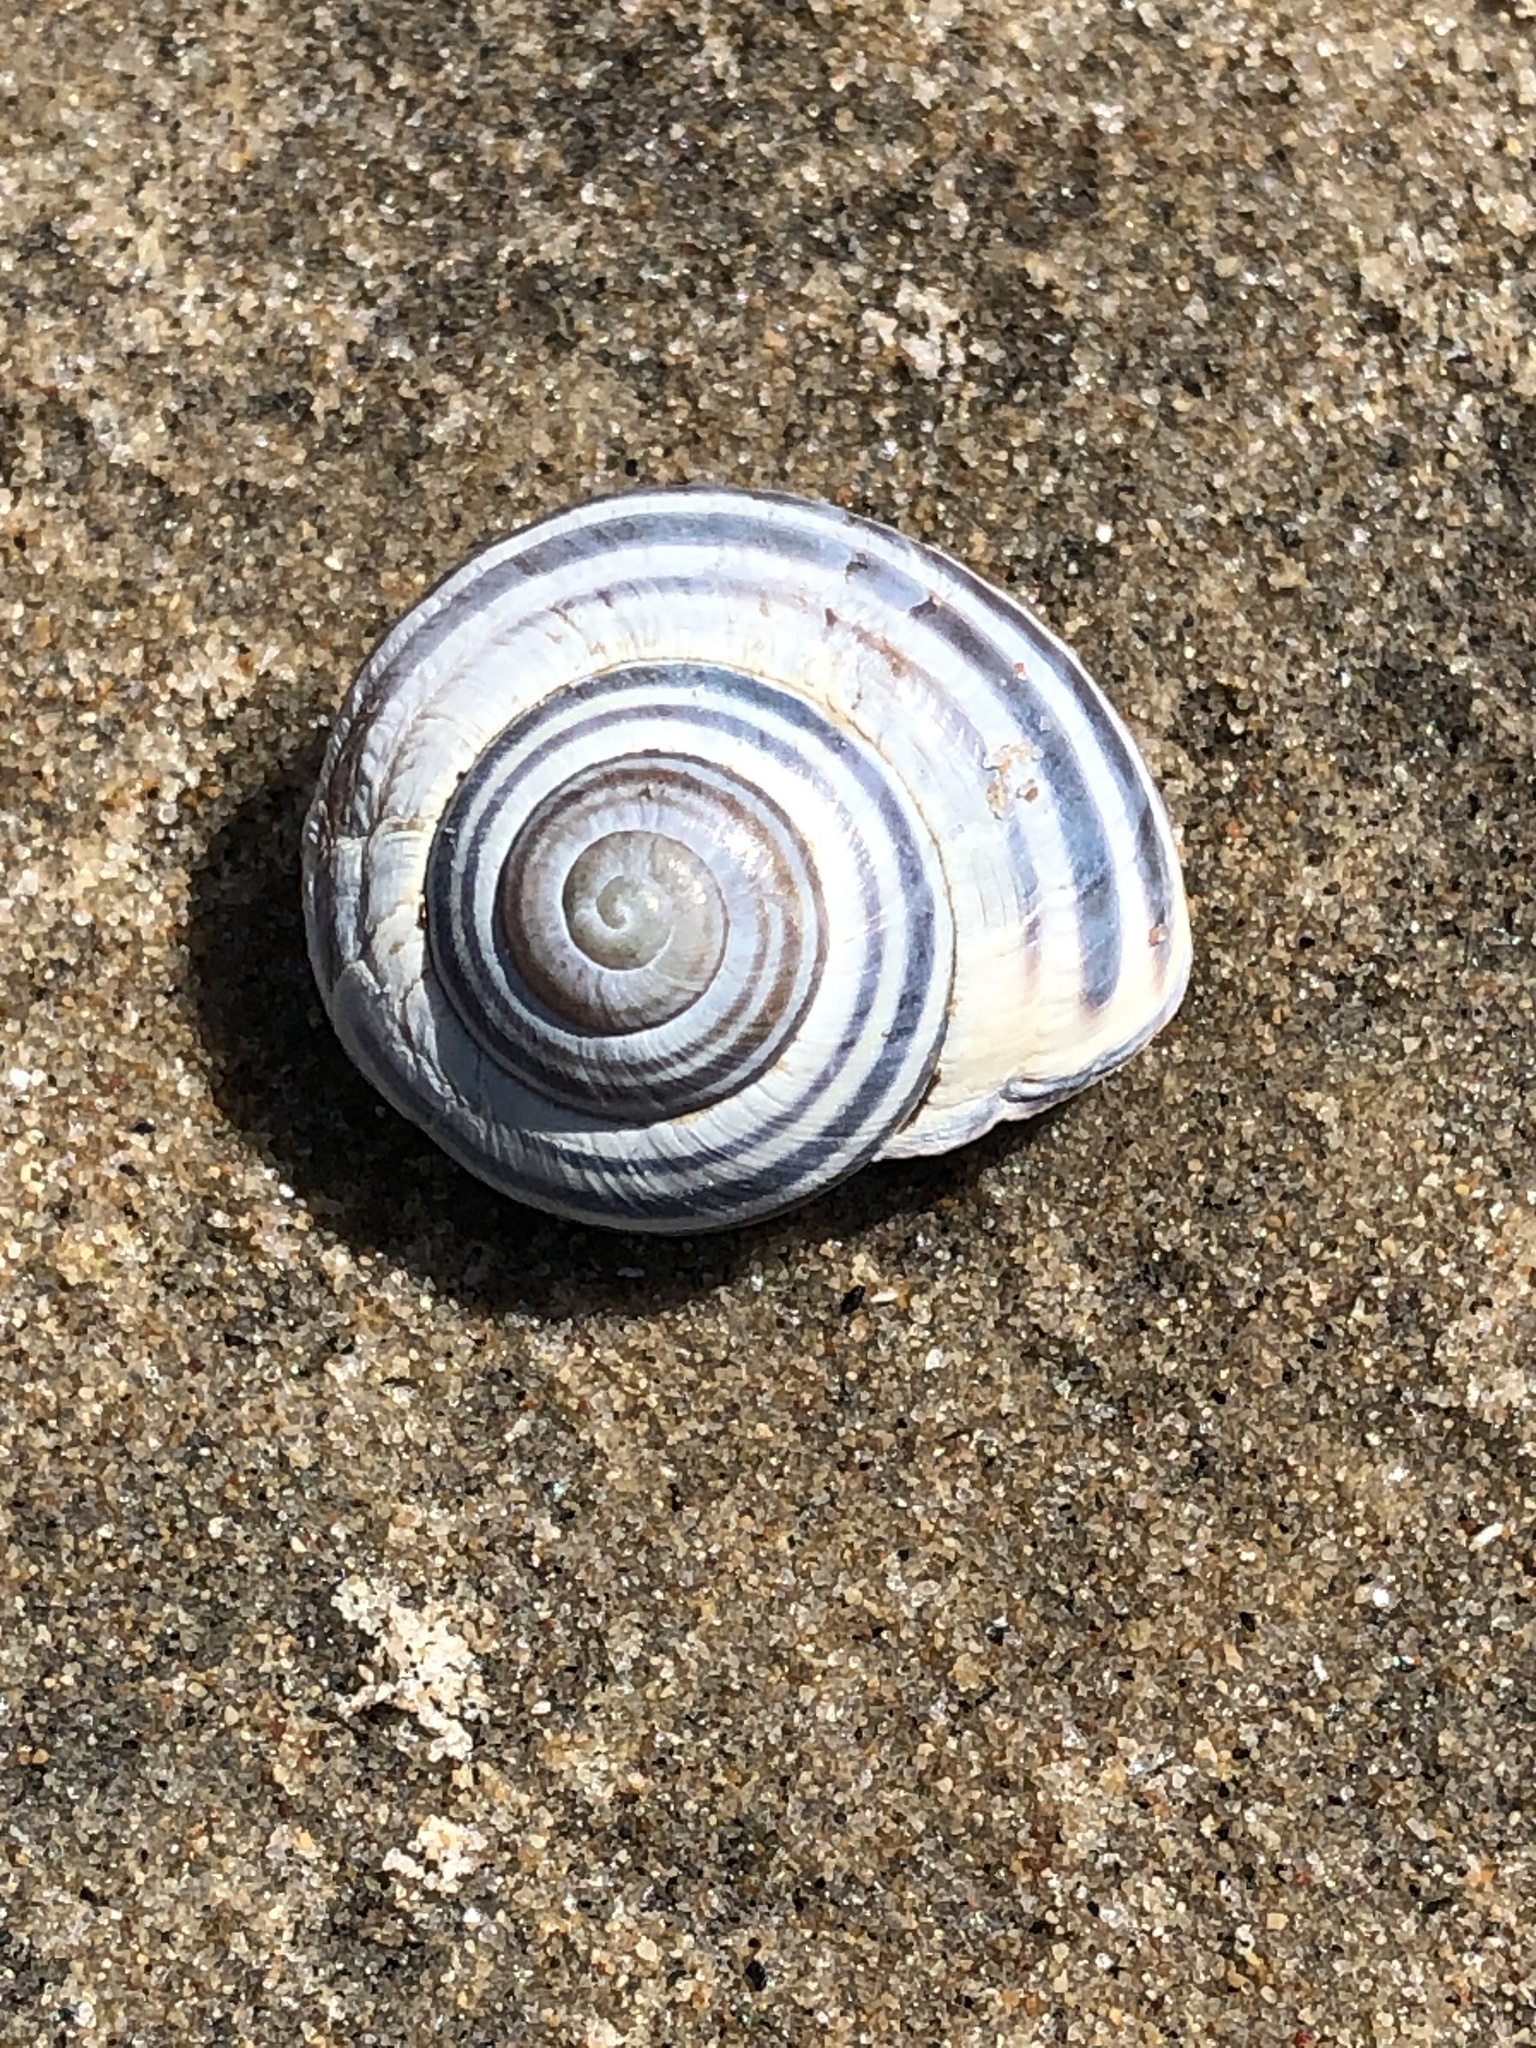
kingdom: Animalia
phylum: Mollusca
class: Gastropoda
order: Stylommatophora
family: Helicidae
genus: Cepaea
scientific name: Cepaea nemoralis
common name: Grovesnail
